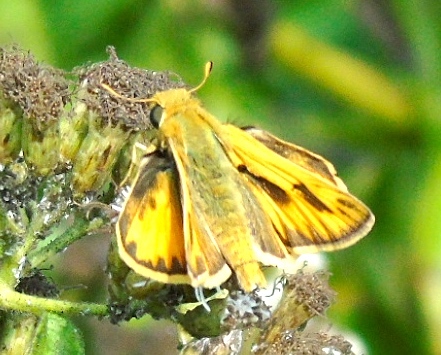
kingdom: Animalia
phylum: Arthropoda
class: Insecta
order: Lepidoptera
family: Hesperiidae
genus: Hylephila
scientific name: Hylephila phyleus
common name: Fiery skipper
